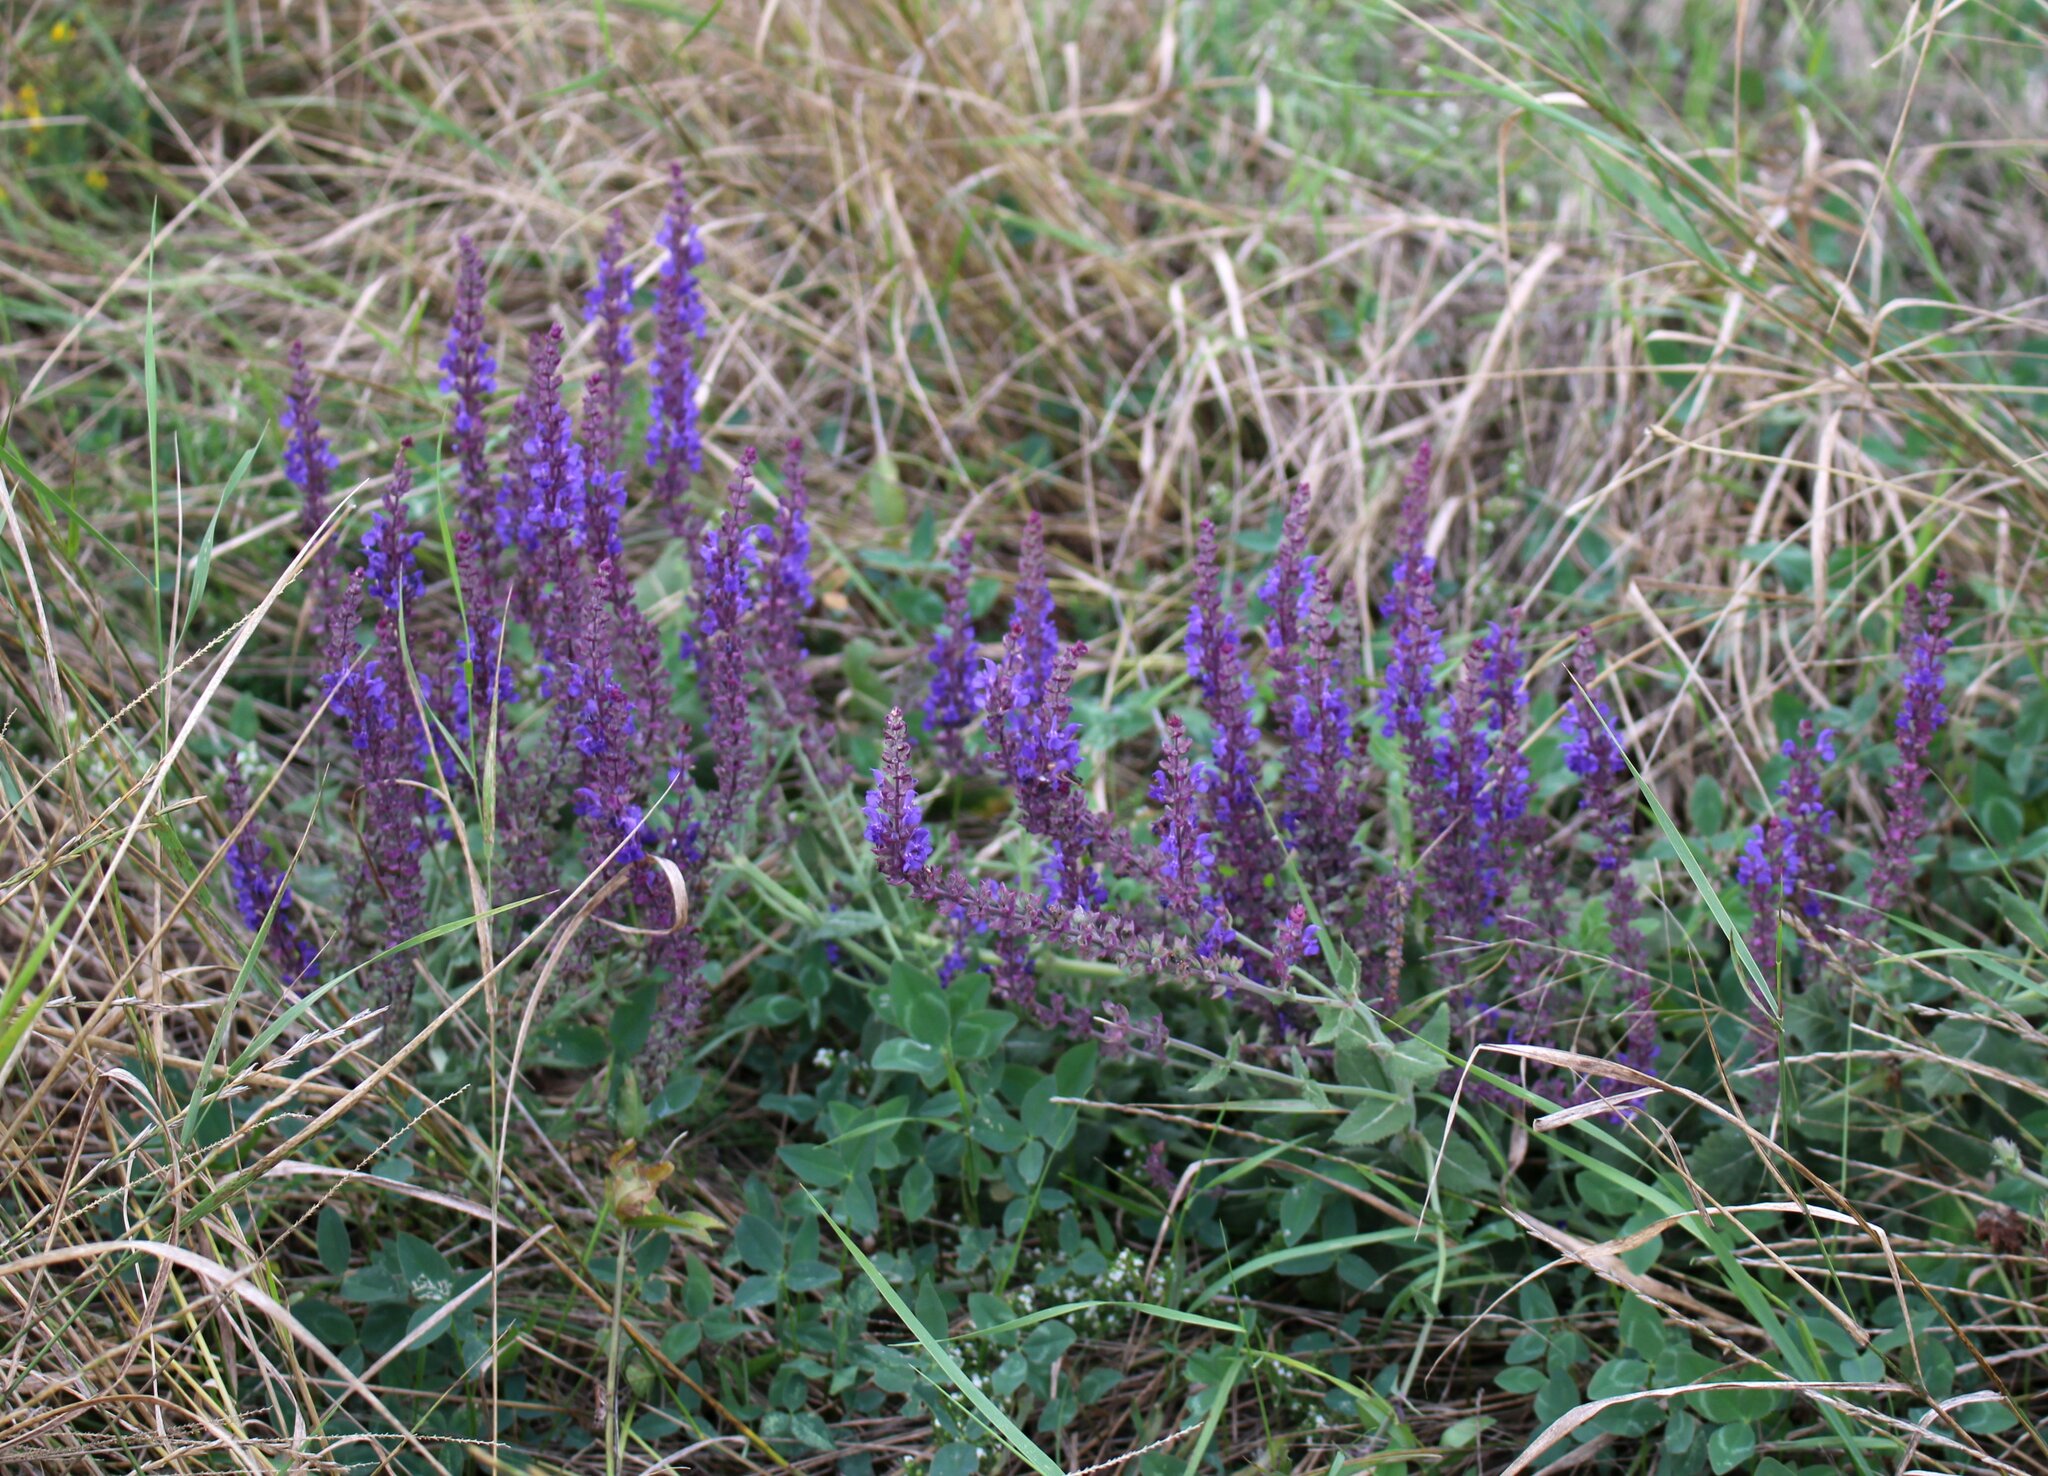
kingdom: Plantae
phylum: Tracheophyta
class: Magnoliopsida
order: Lamiales
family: Lamiaceae
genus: Salvia
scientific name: Salvia nemorosa
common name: Balkan clary
